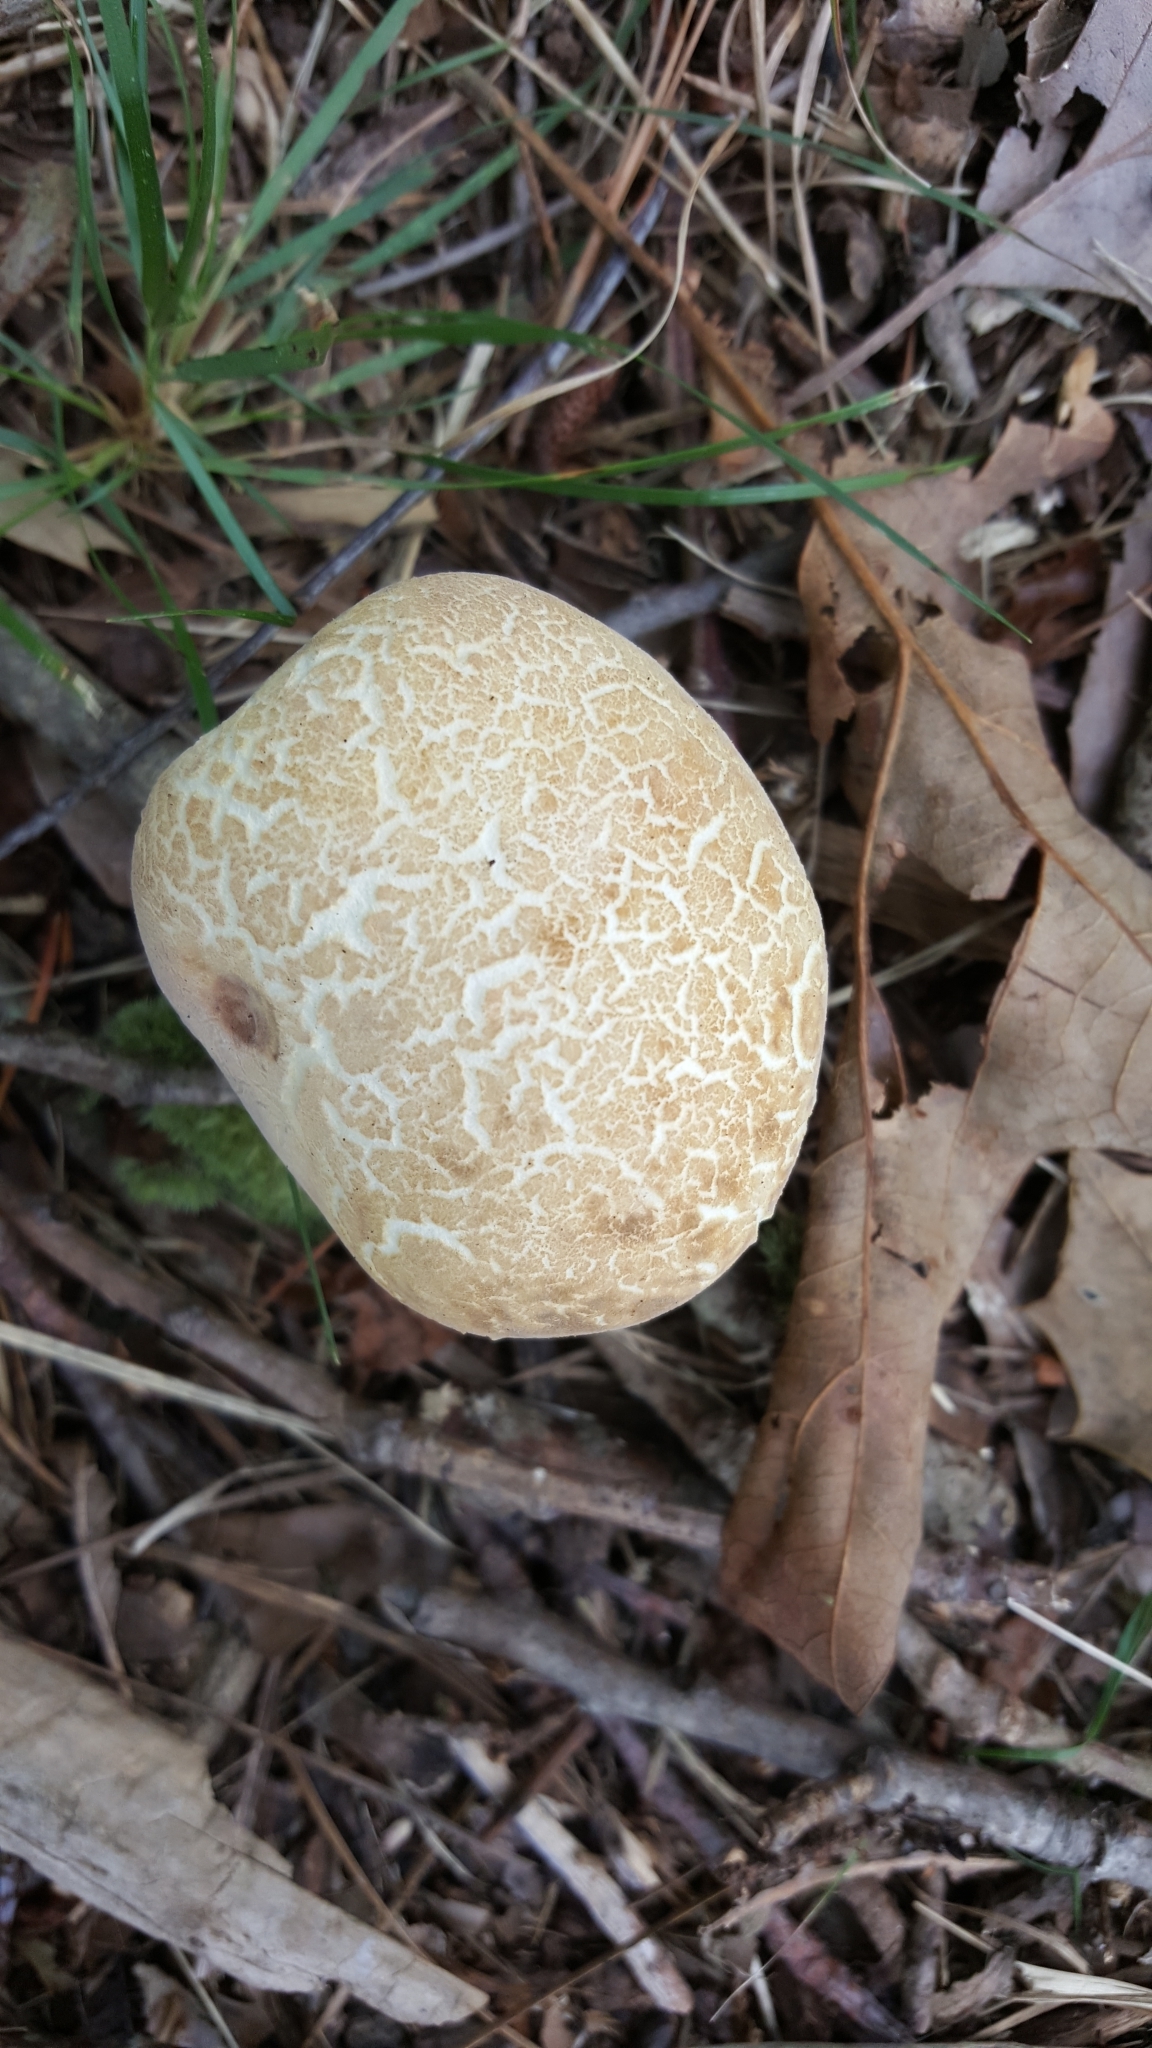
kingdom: Fungi
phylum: Basidiomycota
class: Agaricomycetes
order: Boletales
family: Sclerodermataceae
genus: Scleroderma
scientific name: Scleroderma citrinum
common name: Common earthball
